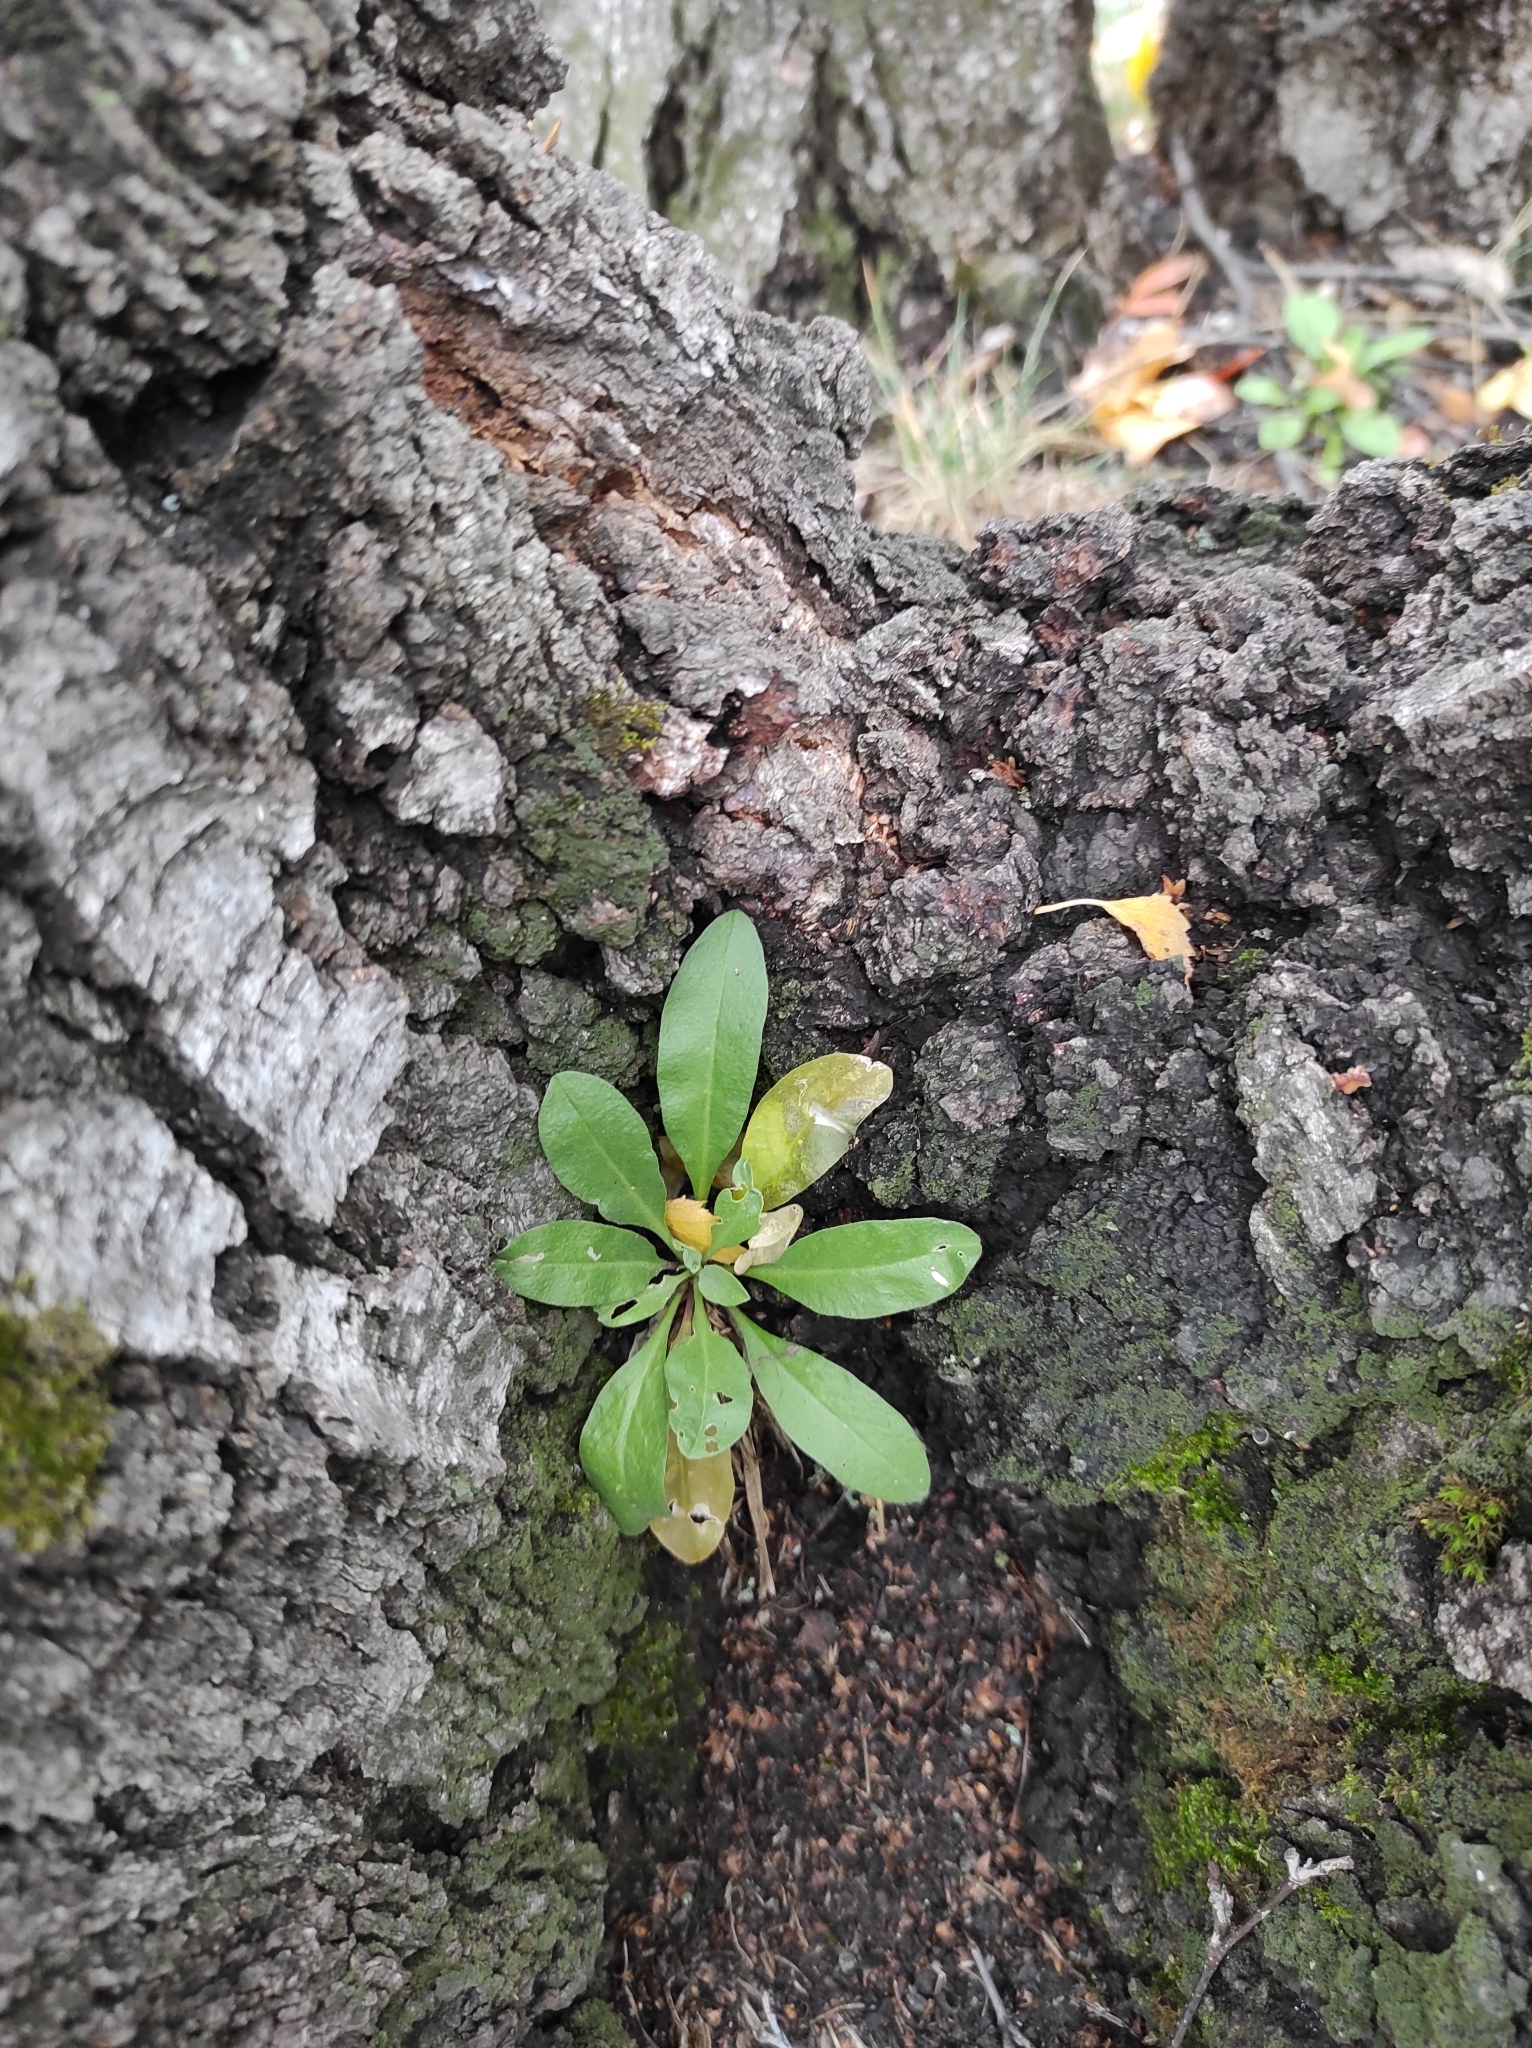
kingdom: Plantae
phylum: Tracheophyta
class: Magnoliopsida
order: Brassicales
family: Brassicaceae
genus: Berteroa
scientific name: Berteroa incana
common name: Hoary alison
